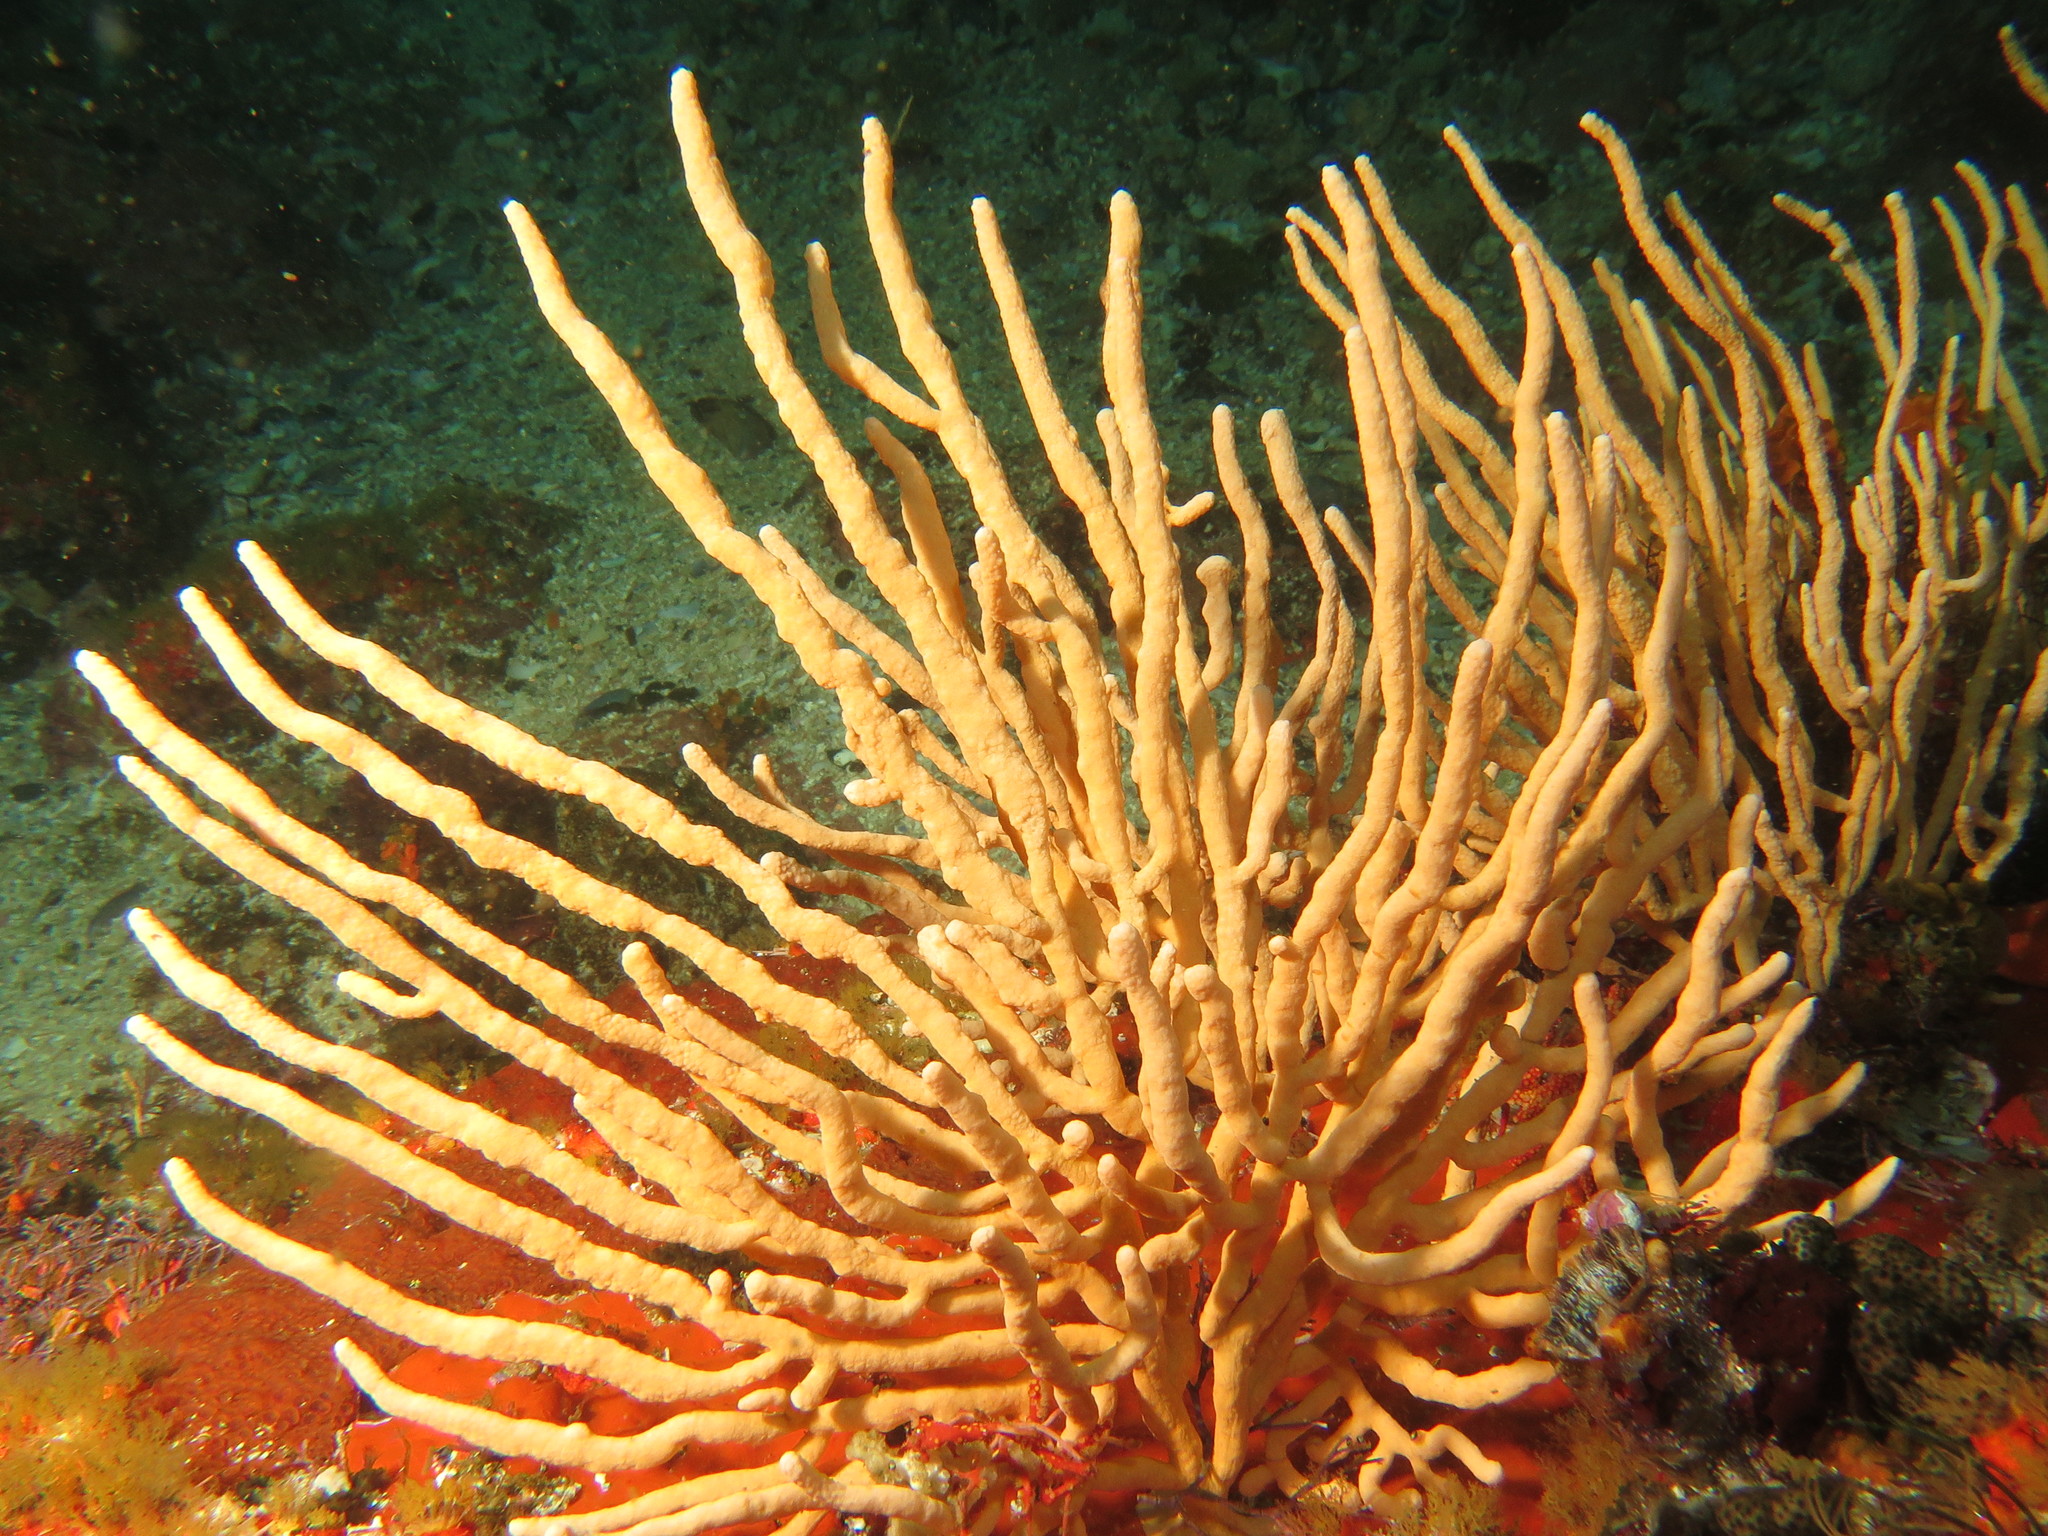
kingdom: Animalia
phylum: Cnidaria
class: Anthozoa
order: Malacalcyonacea
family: Eunicellidae
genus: Eunicella
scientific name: Eunicella microthela
